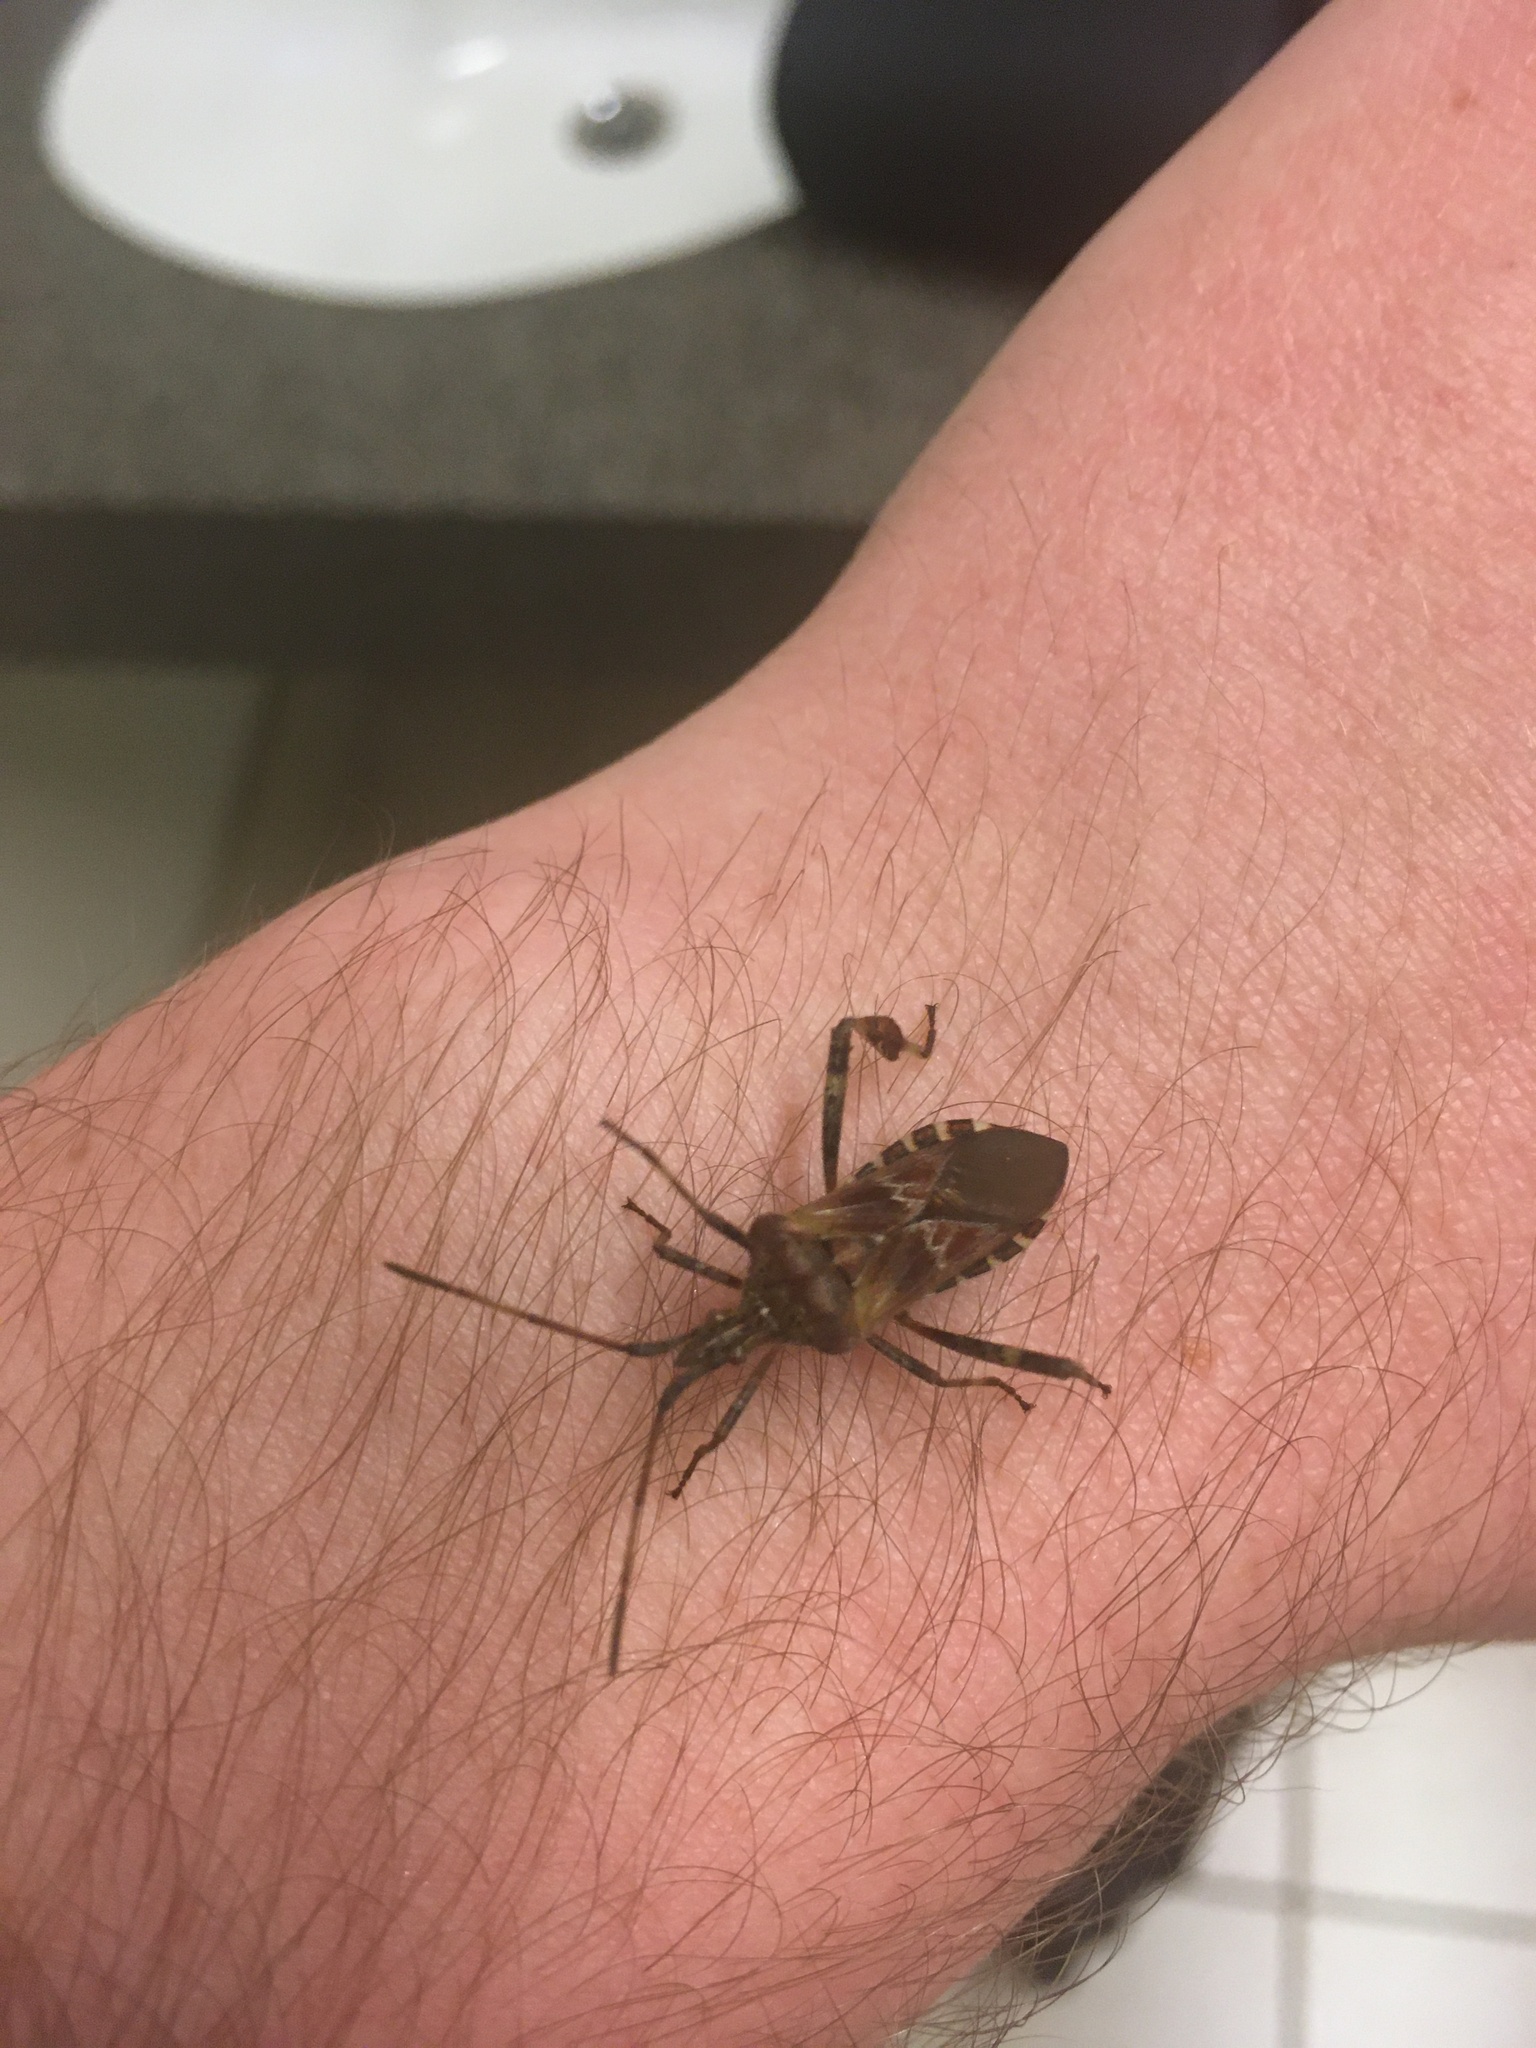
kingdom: Animalia
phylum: Arthropoda
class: Insecta
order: Hemiptera
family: Coreidae
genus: Leptoglossus
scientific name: Leptoglossus occidentalis
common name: Western conifer-seed bug
